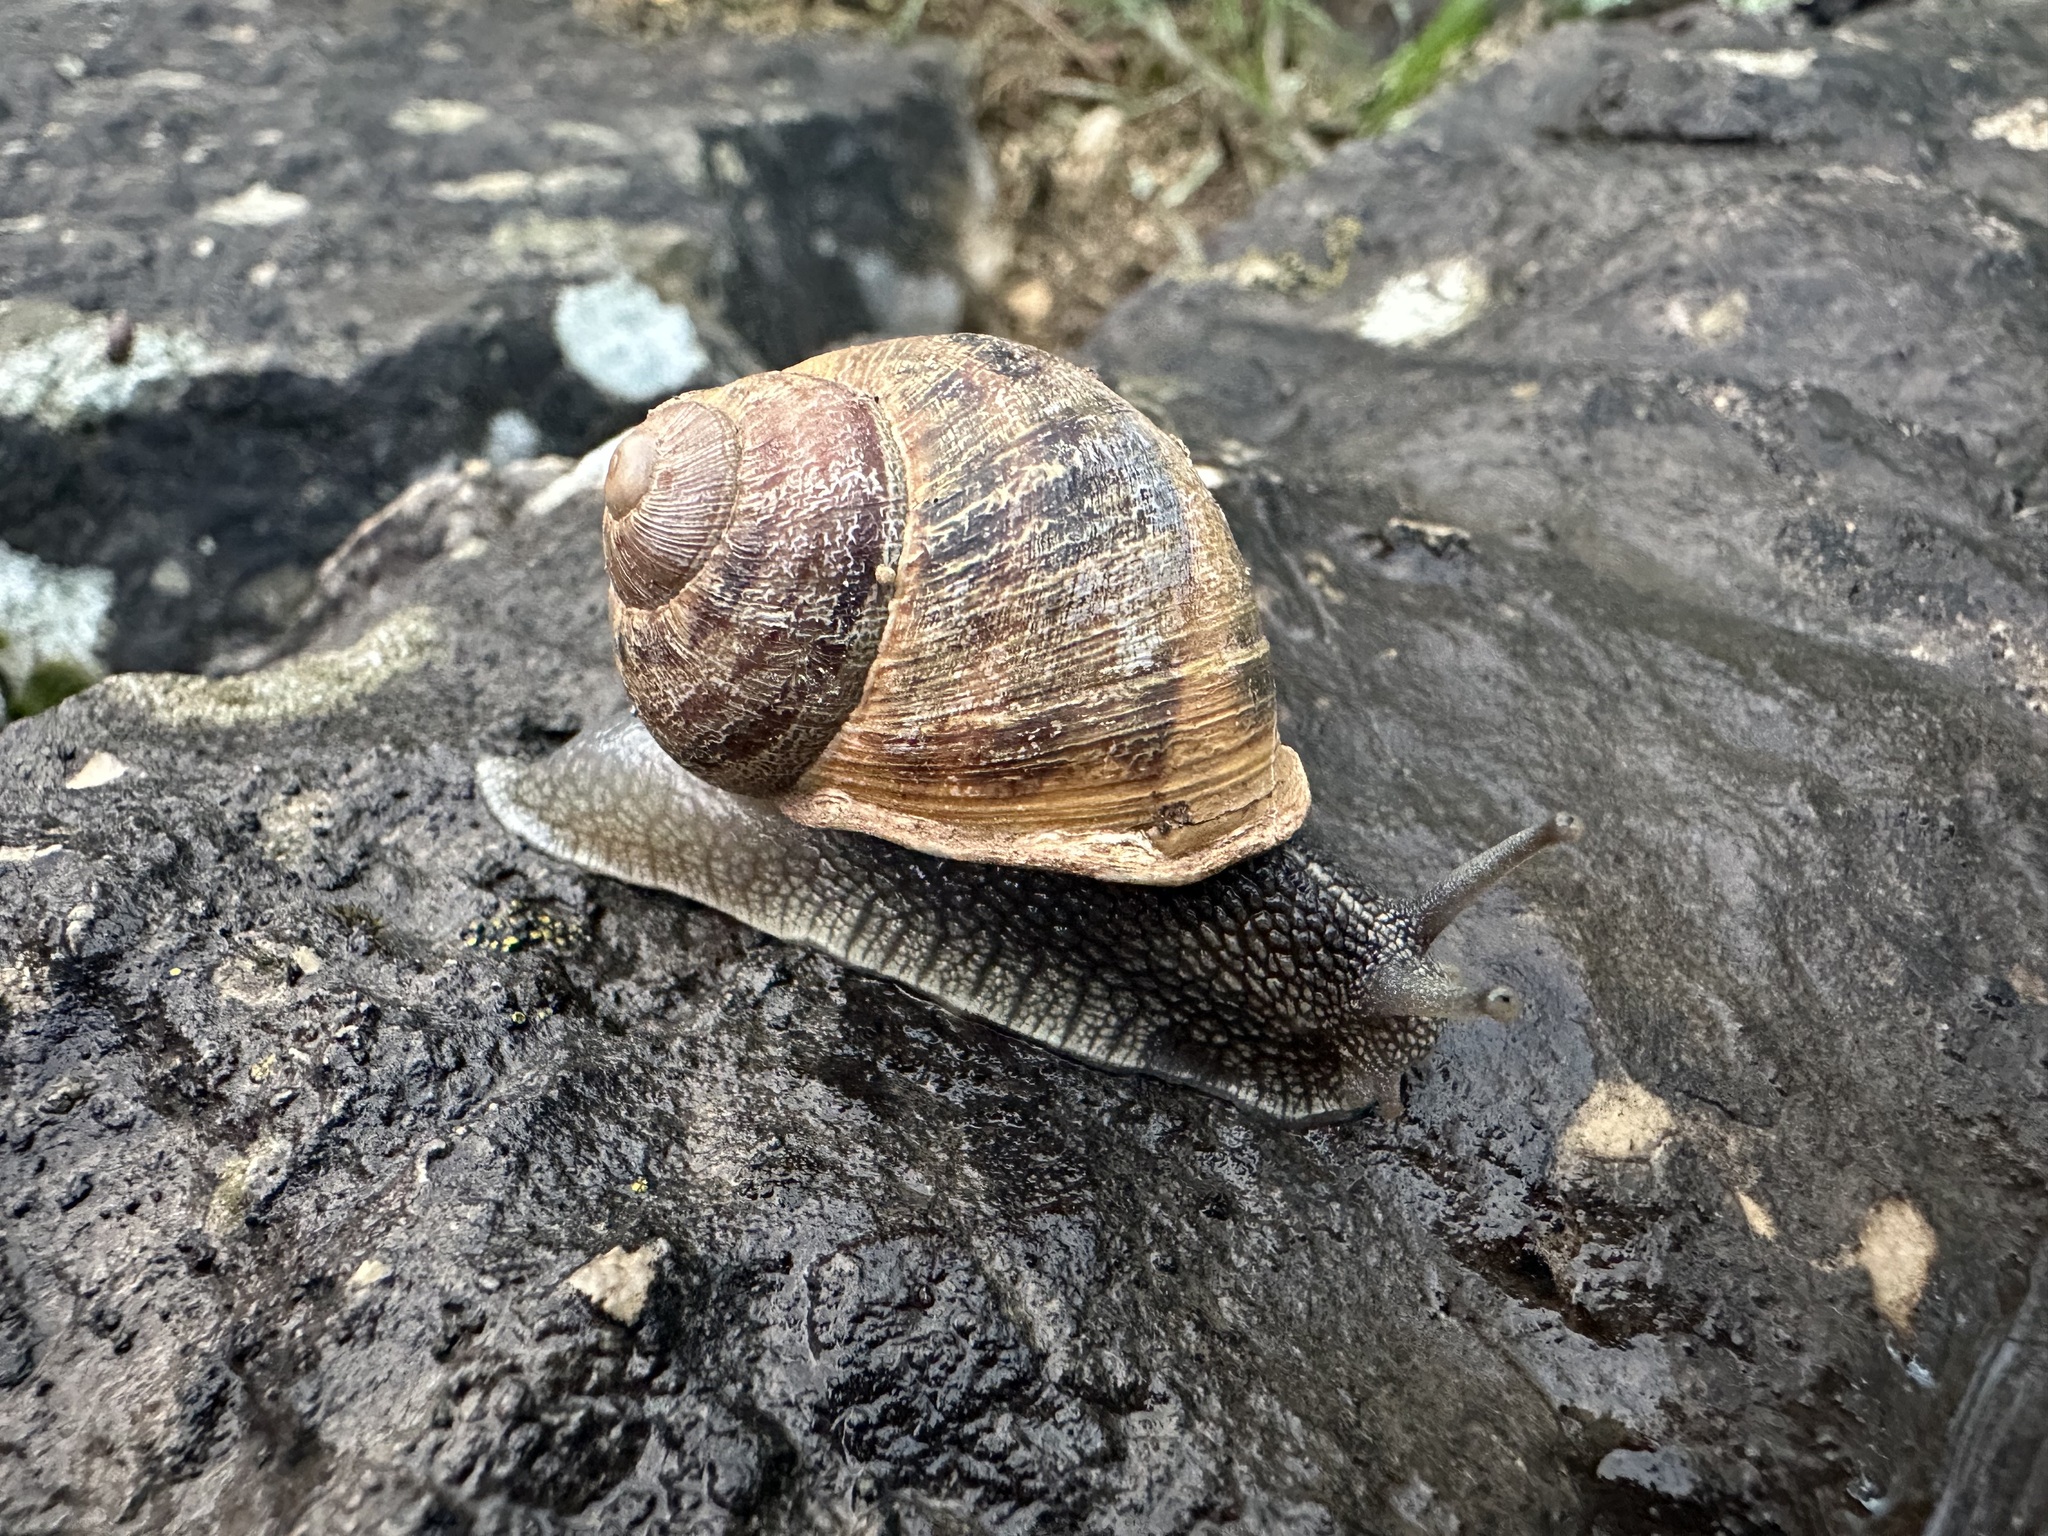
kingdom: Animalia
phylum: Mollusca
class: Gastropoda
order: Stylommatophora
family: Helicidae
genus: Cornu
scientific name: Cornu aspersum
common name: Brown garden snail
